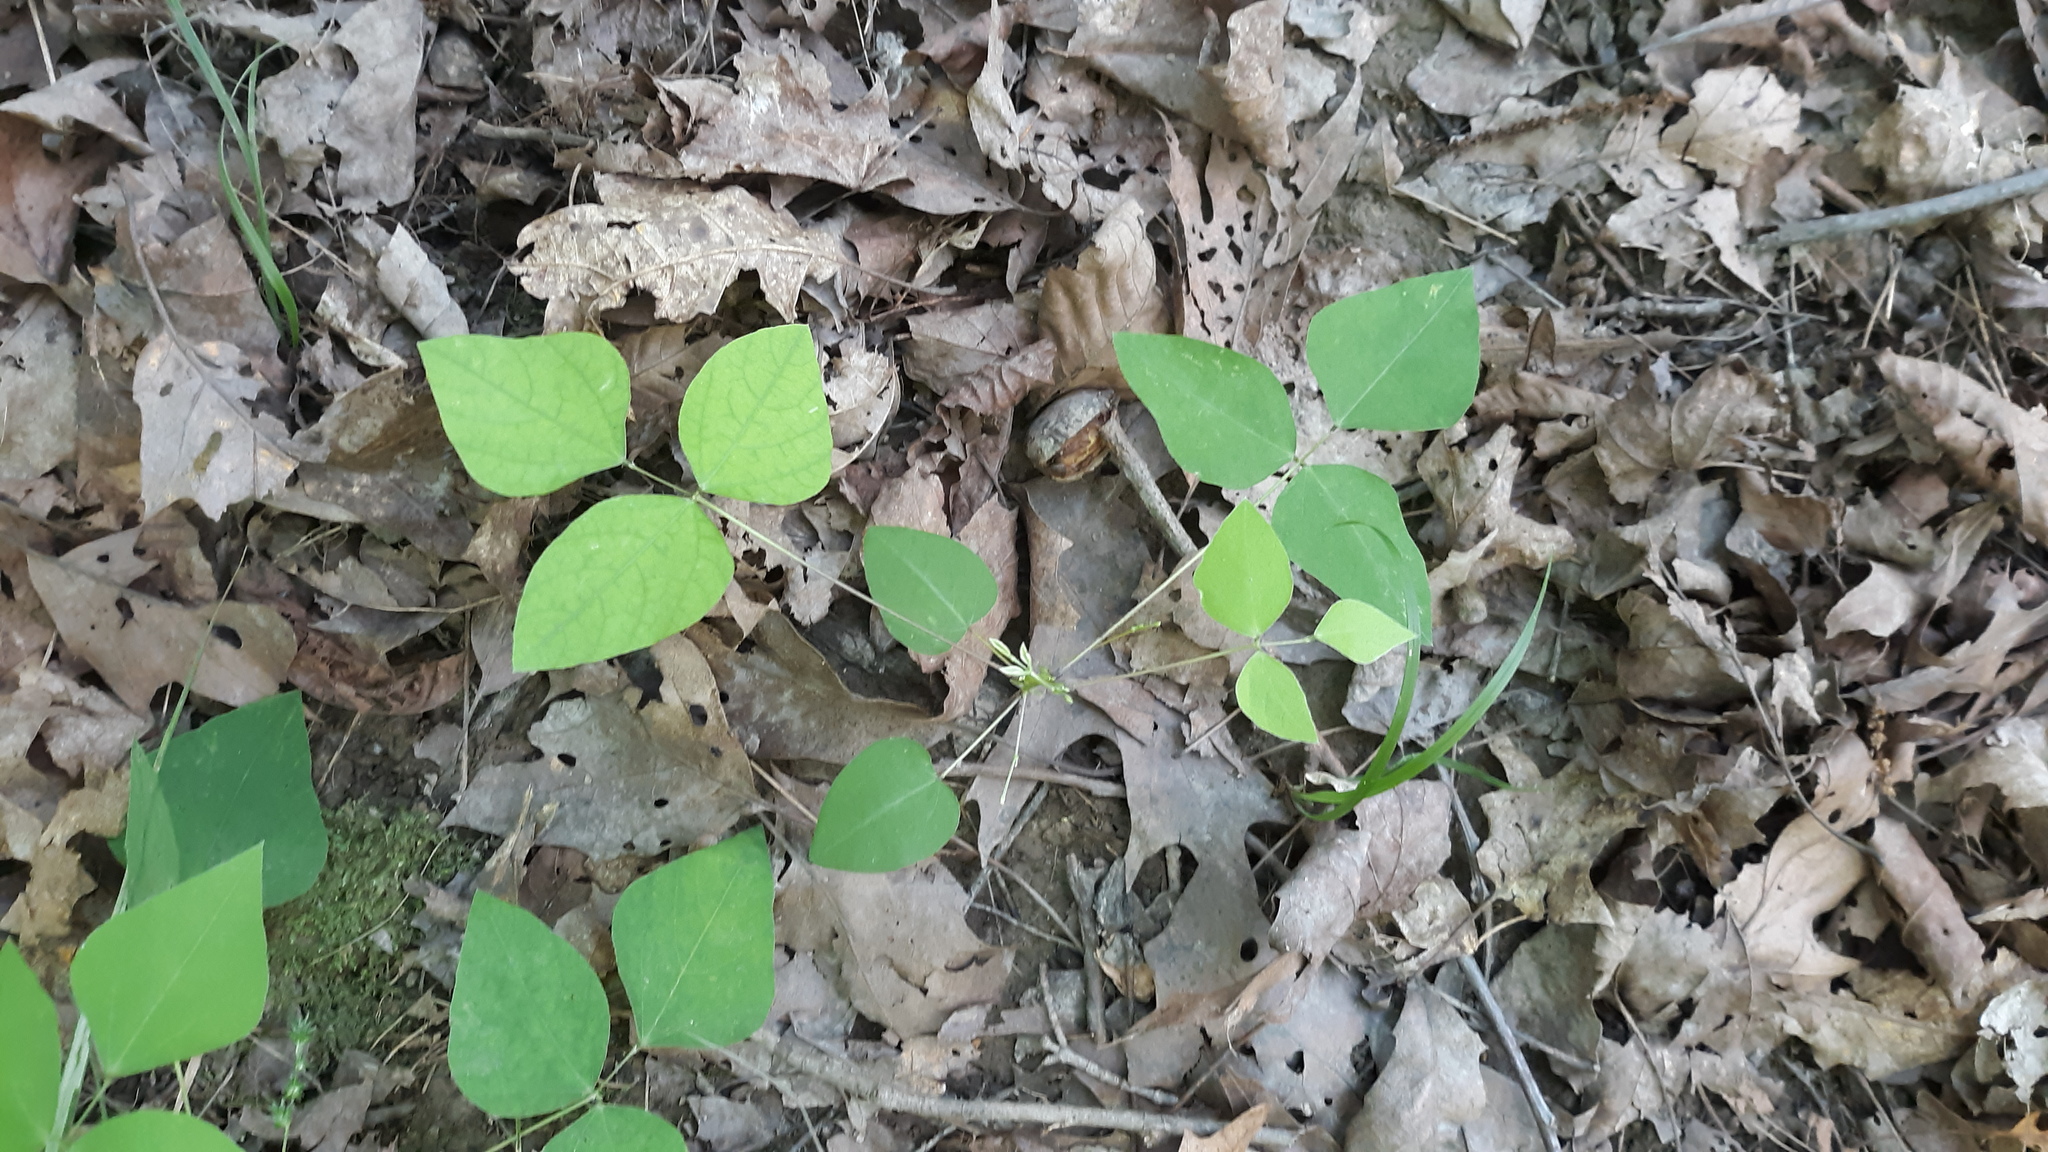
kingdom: Plantae
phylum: Tracheophyta
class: Magnoliopsida
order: Fabales
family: Fabaceae
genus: Amphicarpaea
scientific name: Amphicarpaea bracteata
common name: American hog peanut
